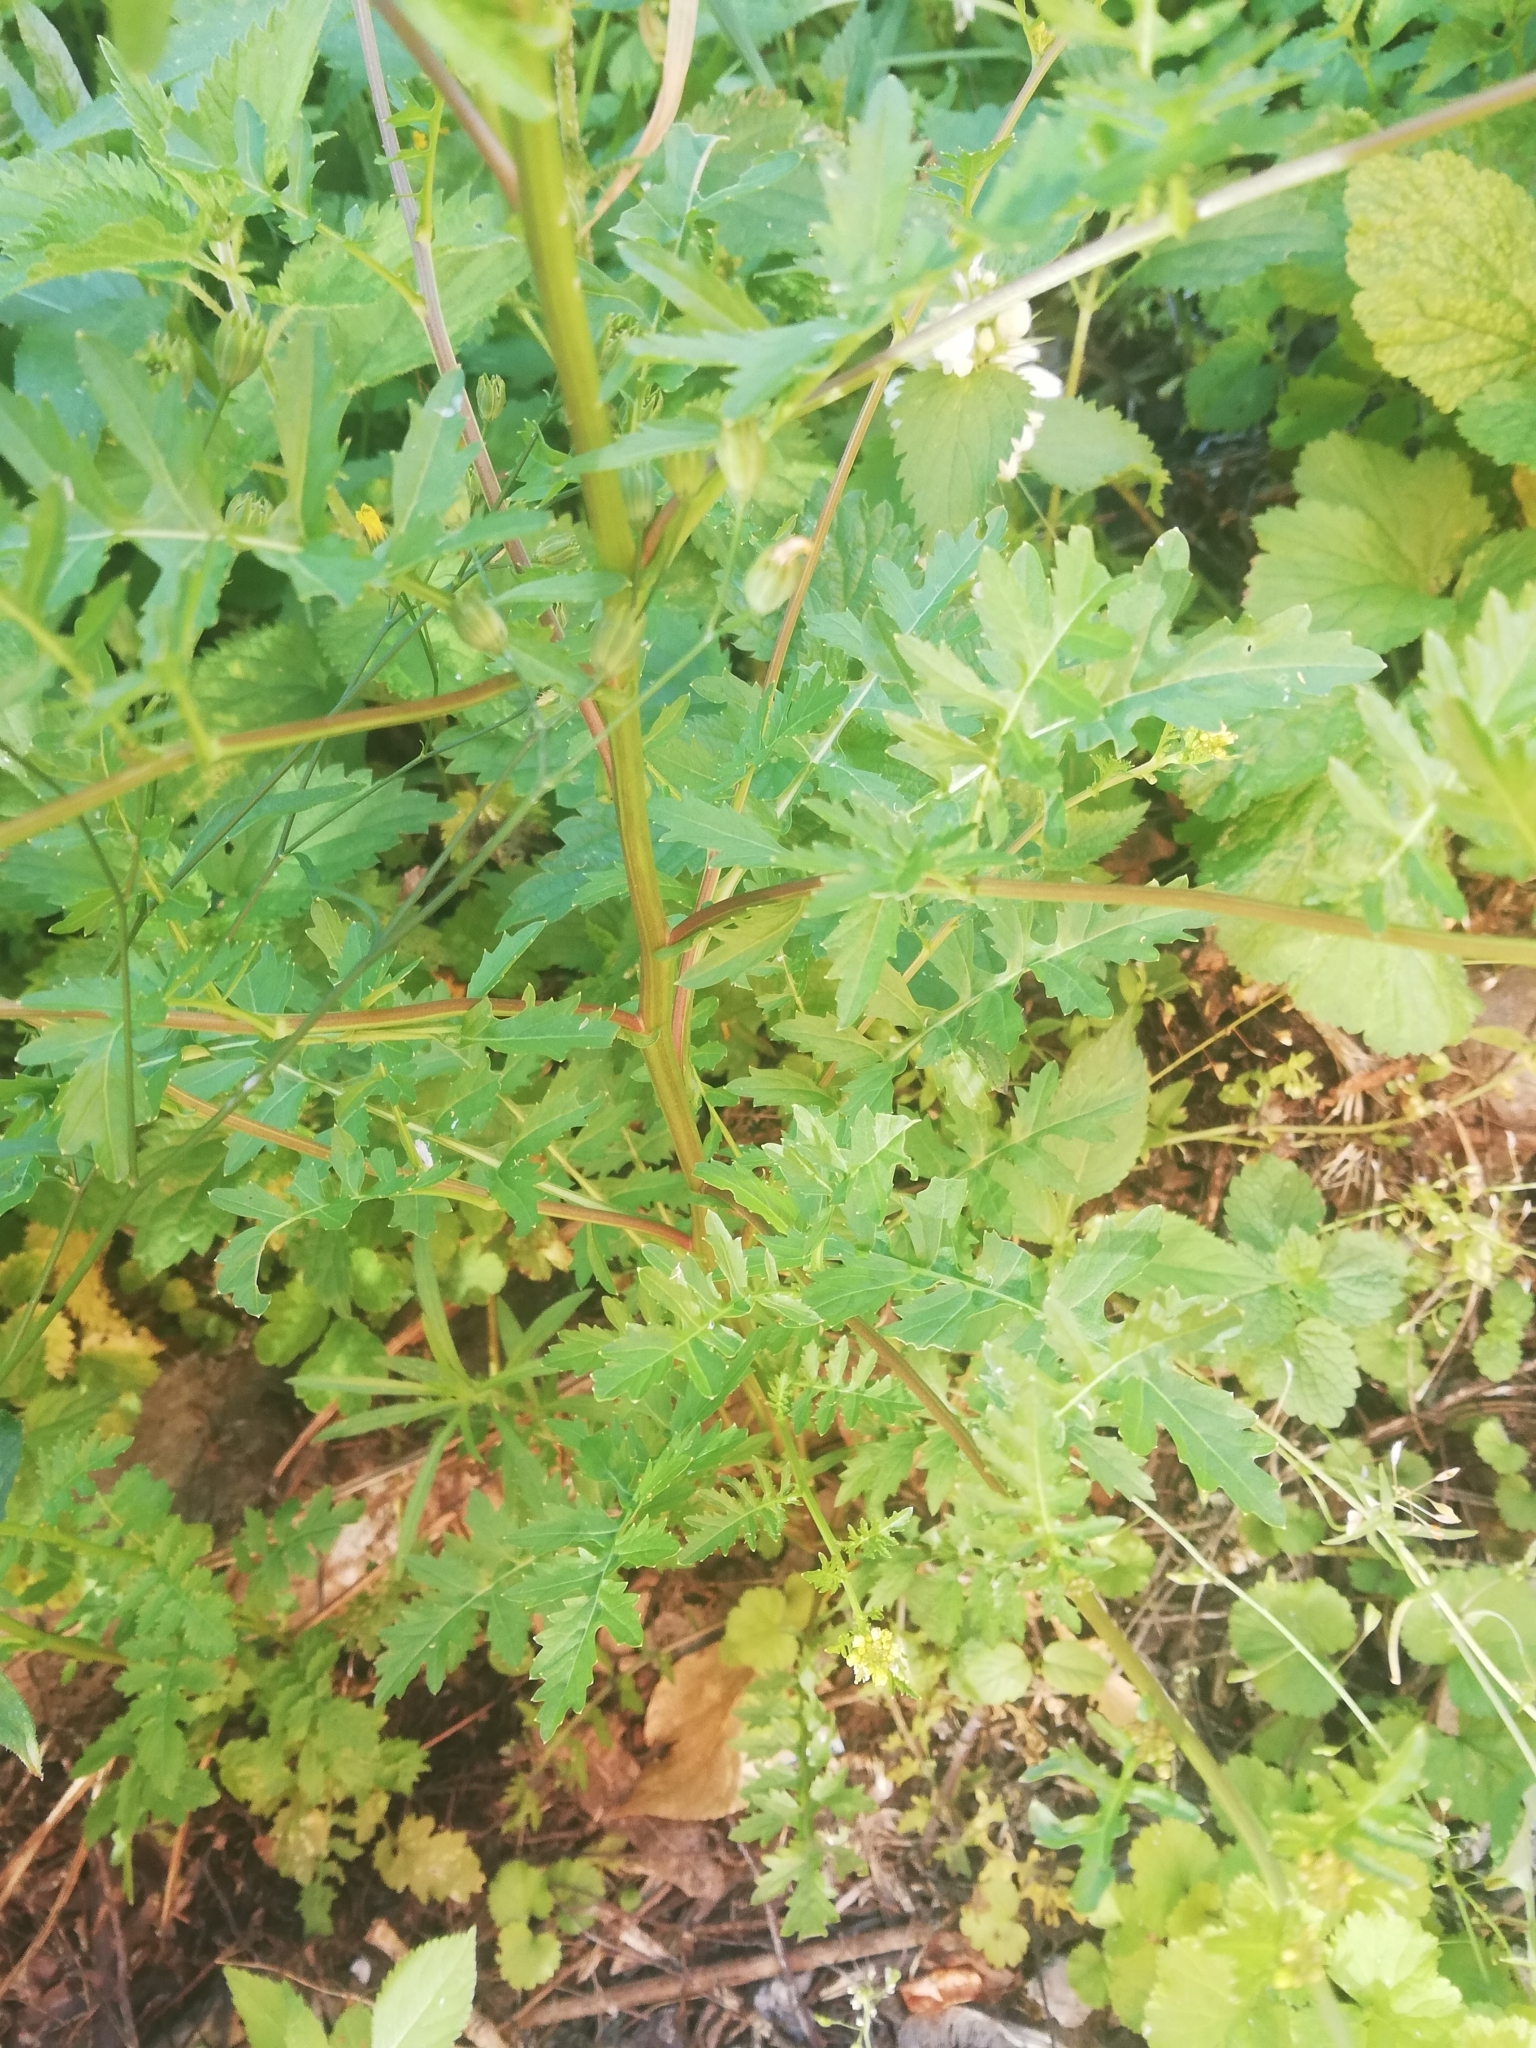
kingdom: Plantae
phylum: Tracheophyta
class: Magnoliopsida
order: Brassicales
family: Brassicaceae
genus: Rorippa
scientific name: Rorippa palustris
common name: Marsh yellow-cress
